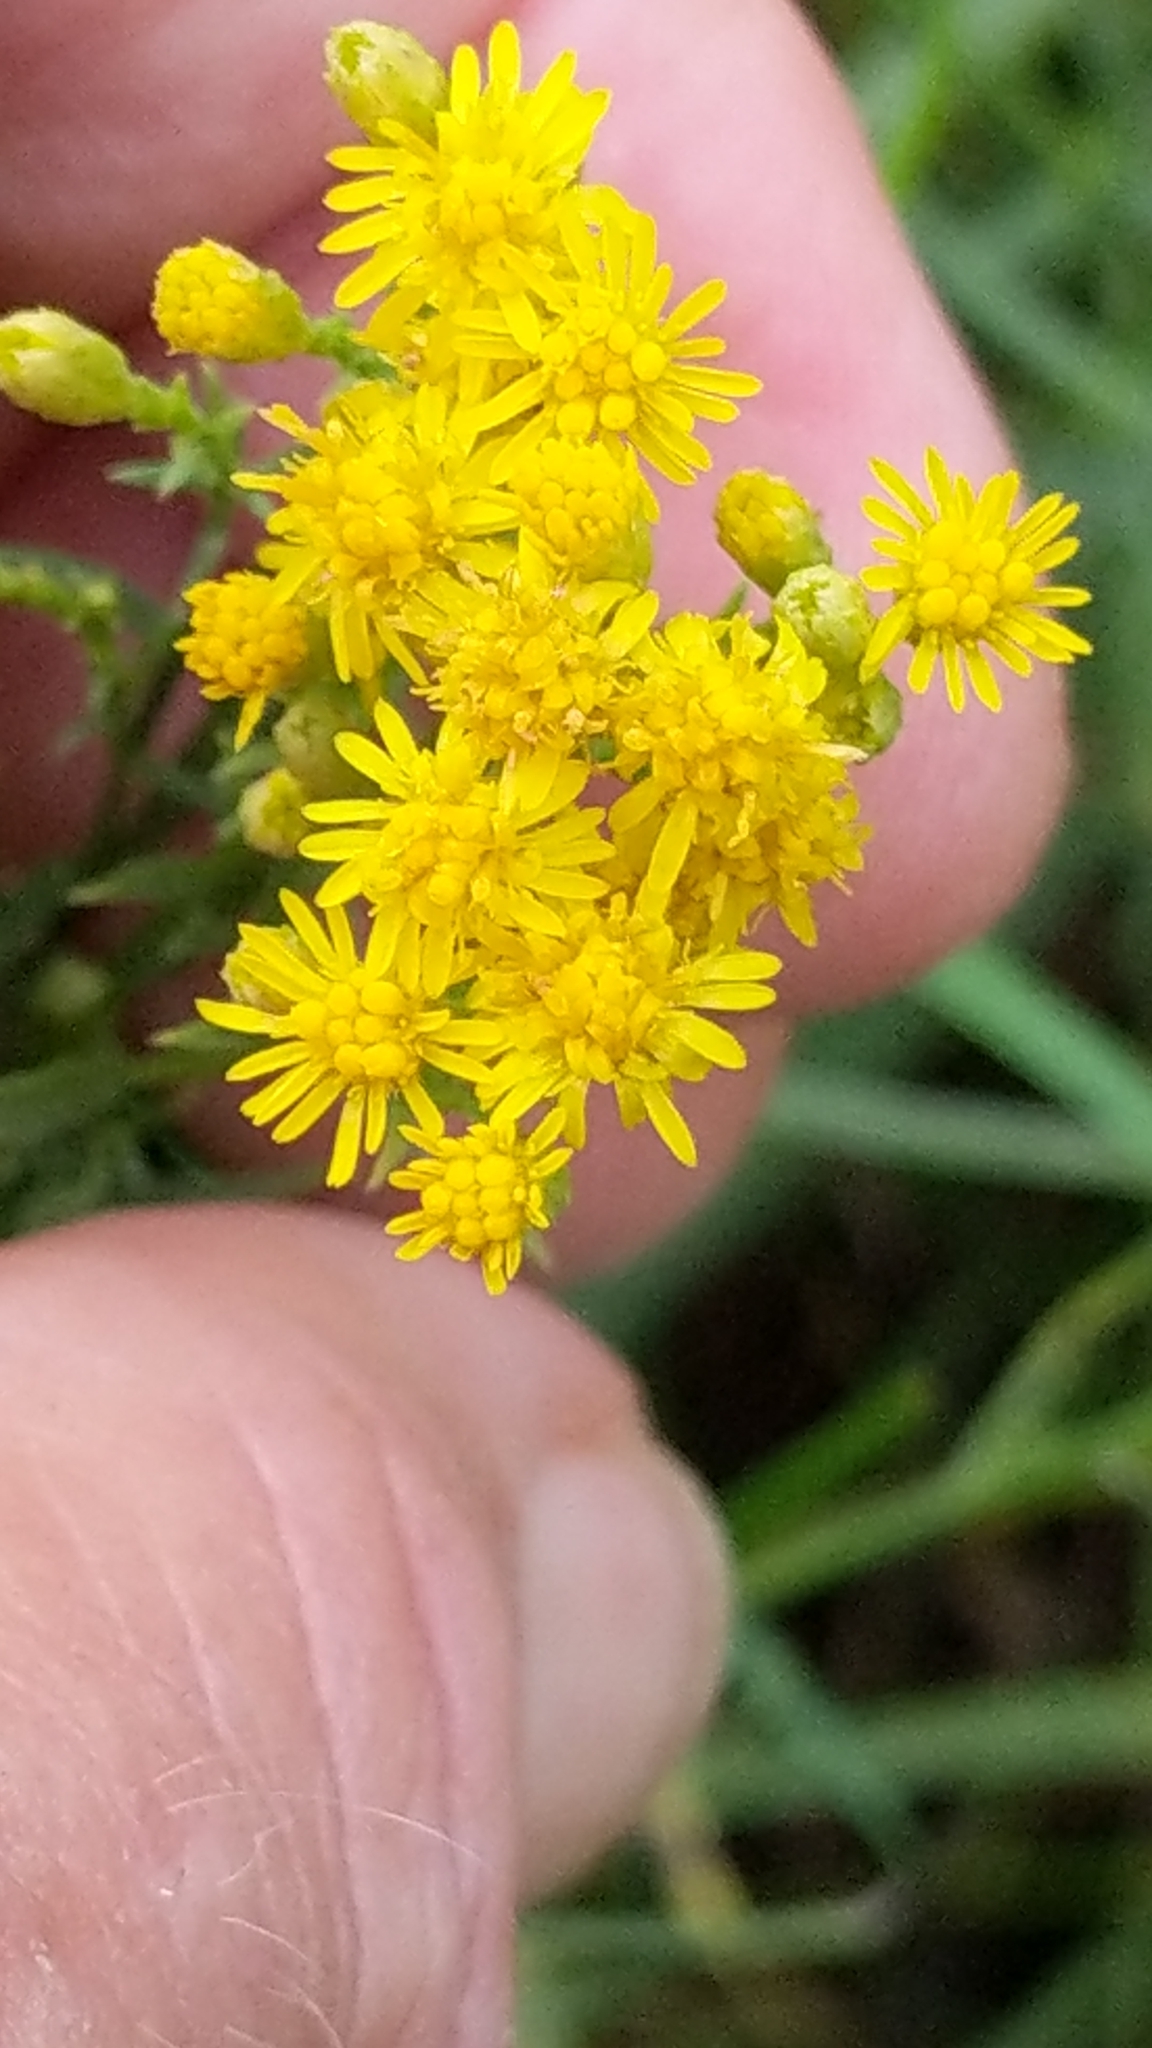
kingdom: Plantae
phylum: Tracheophyta
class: Magnoliopsida
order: Asterales
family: Asteraceae
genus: Euthamia
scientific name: Euthamia occidentalis
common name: Western goldentop
